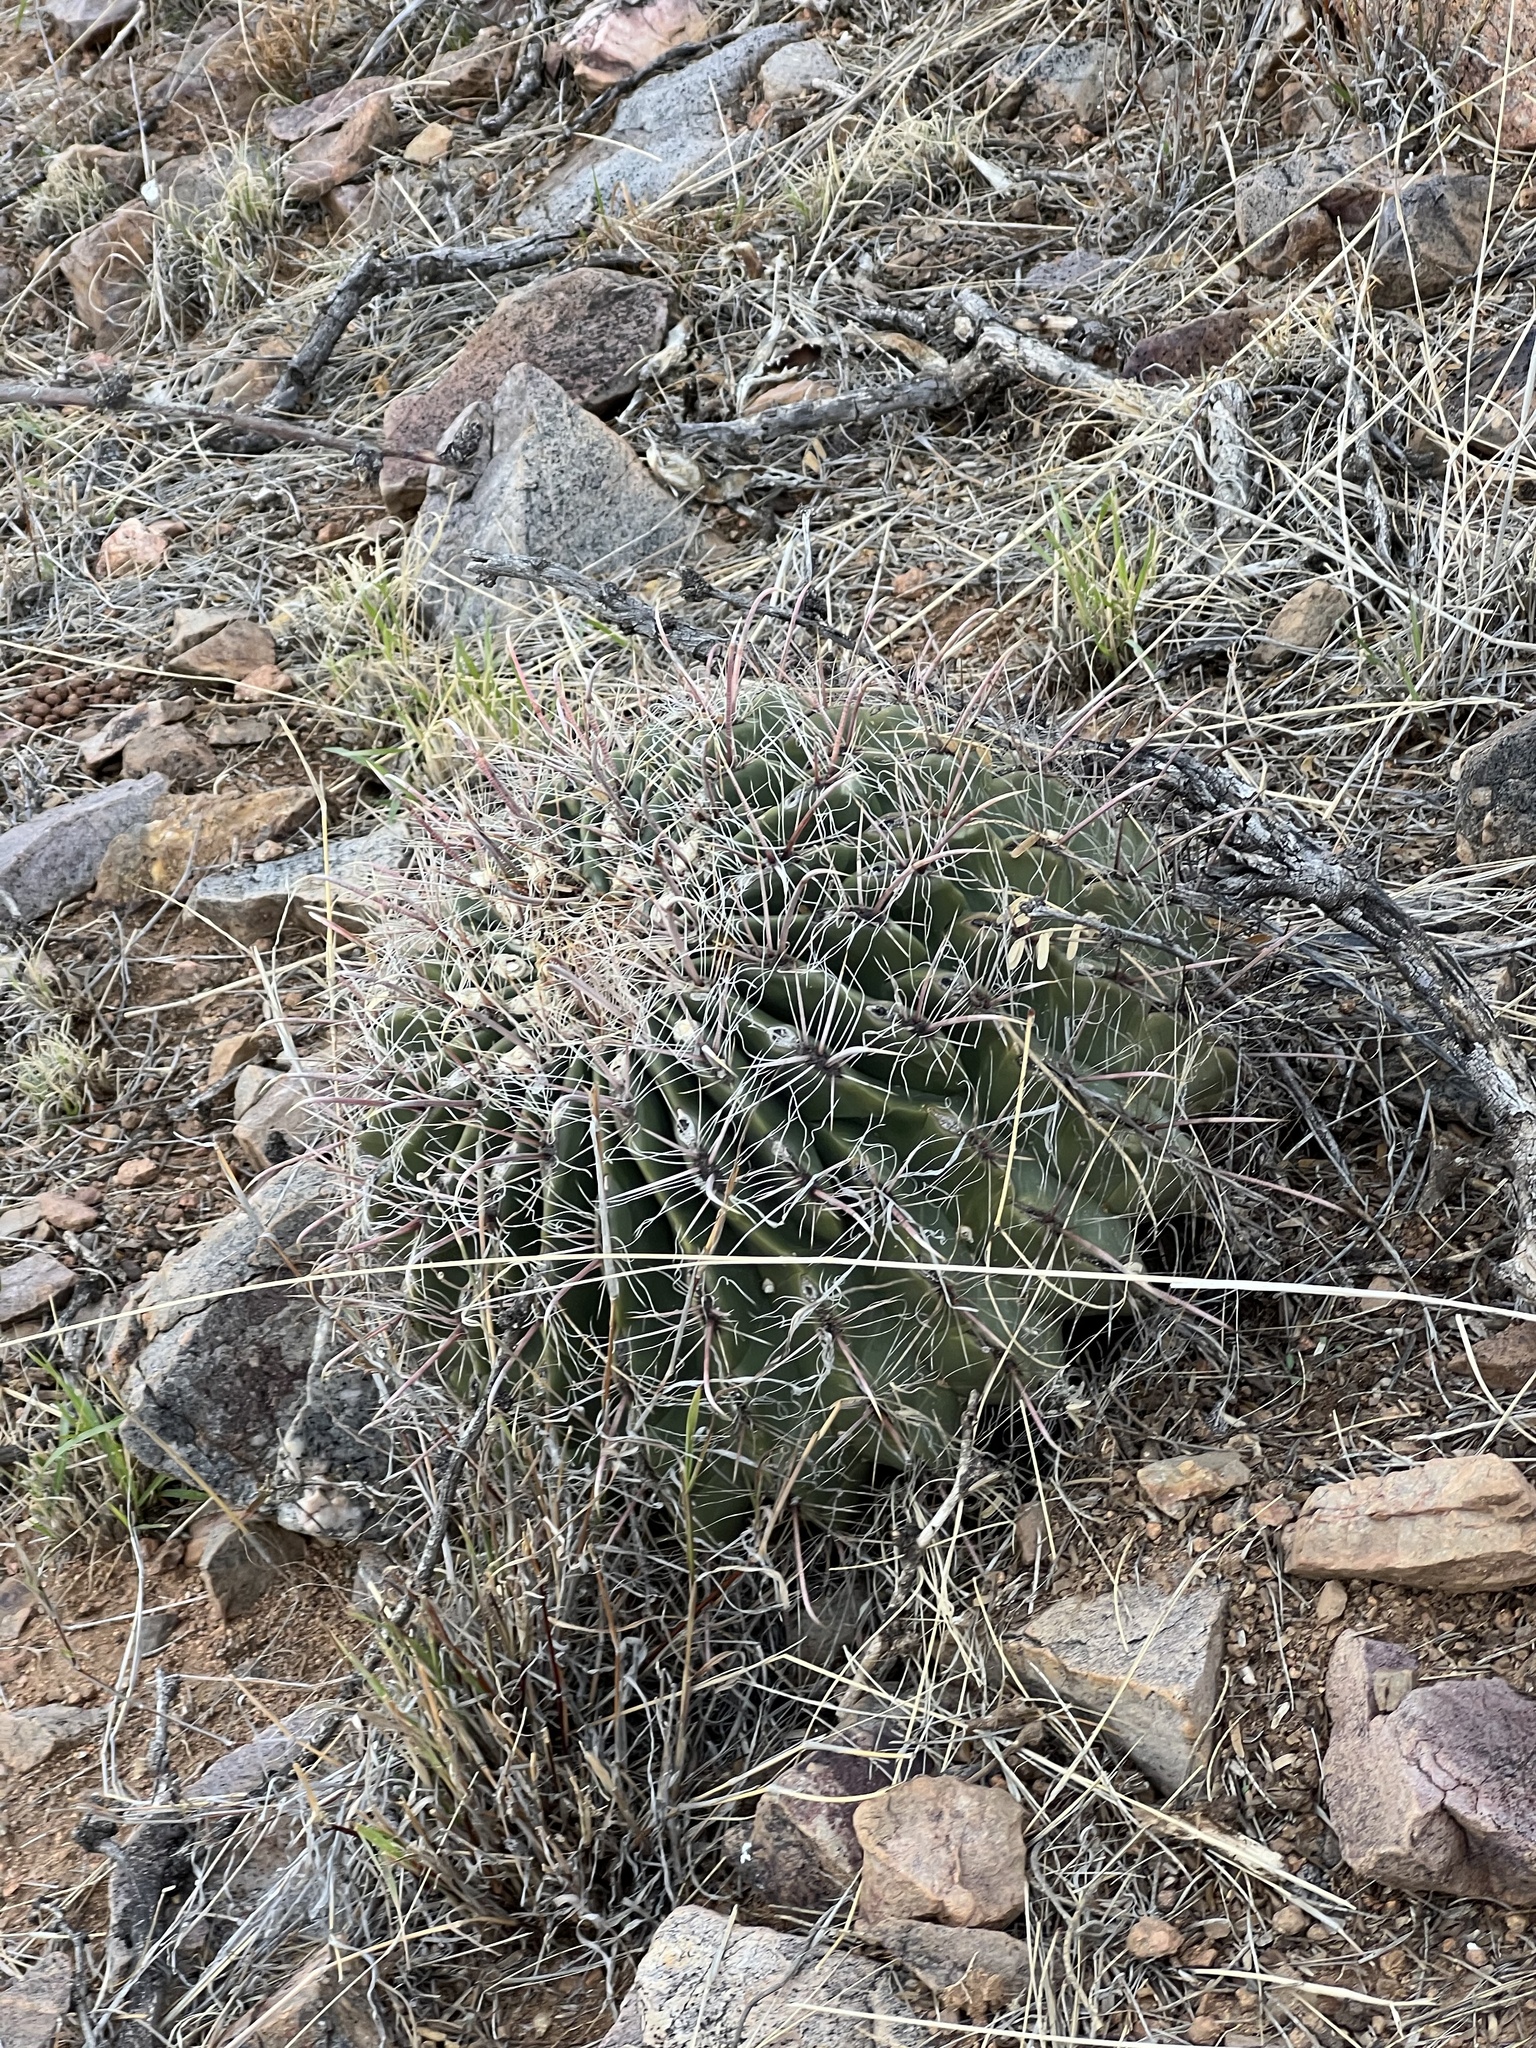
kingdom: Plantae
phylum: Tracheophyta
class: Magnoliopsida
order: Caryophyllales
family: Cactaceae
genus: Ferocactus
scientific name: Ferocactus wislizeni
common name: Candy barrel cactus
